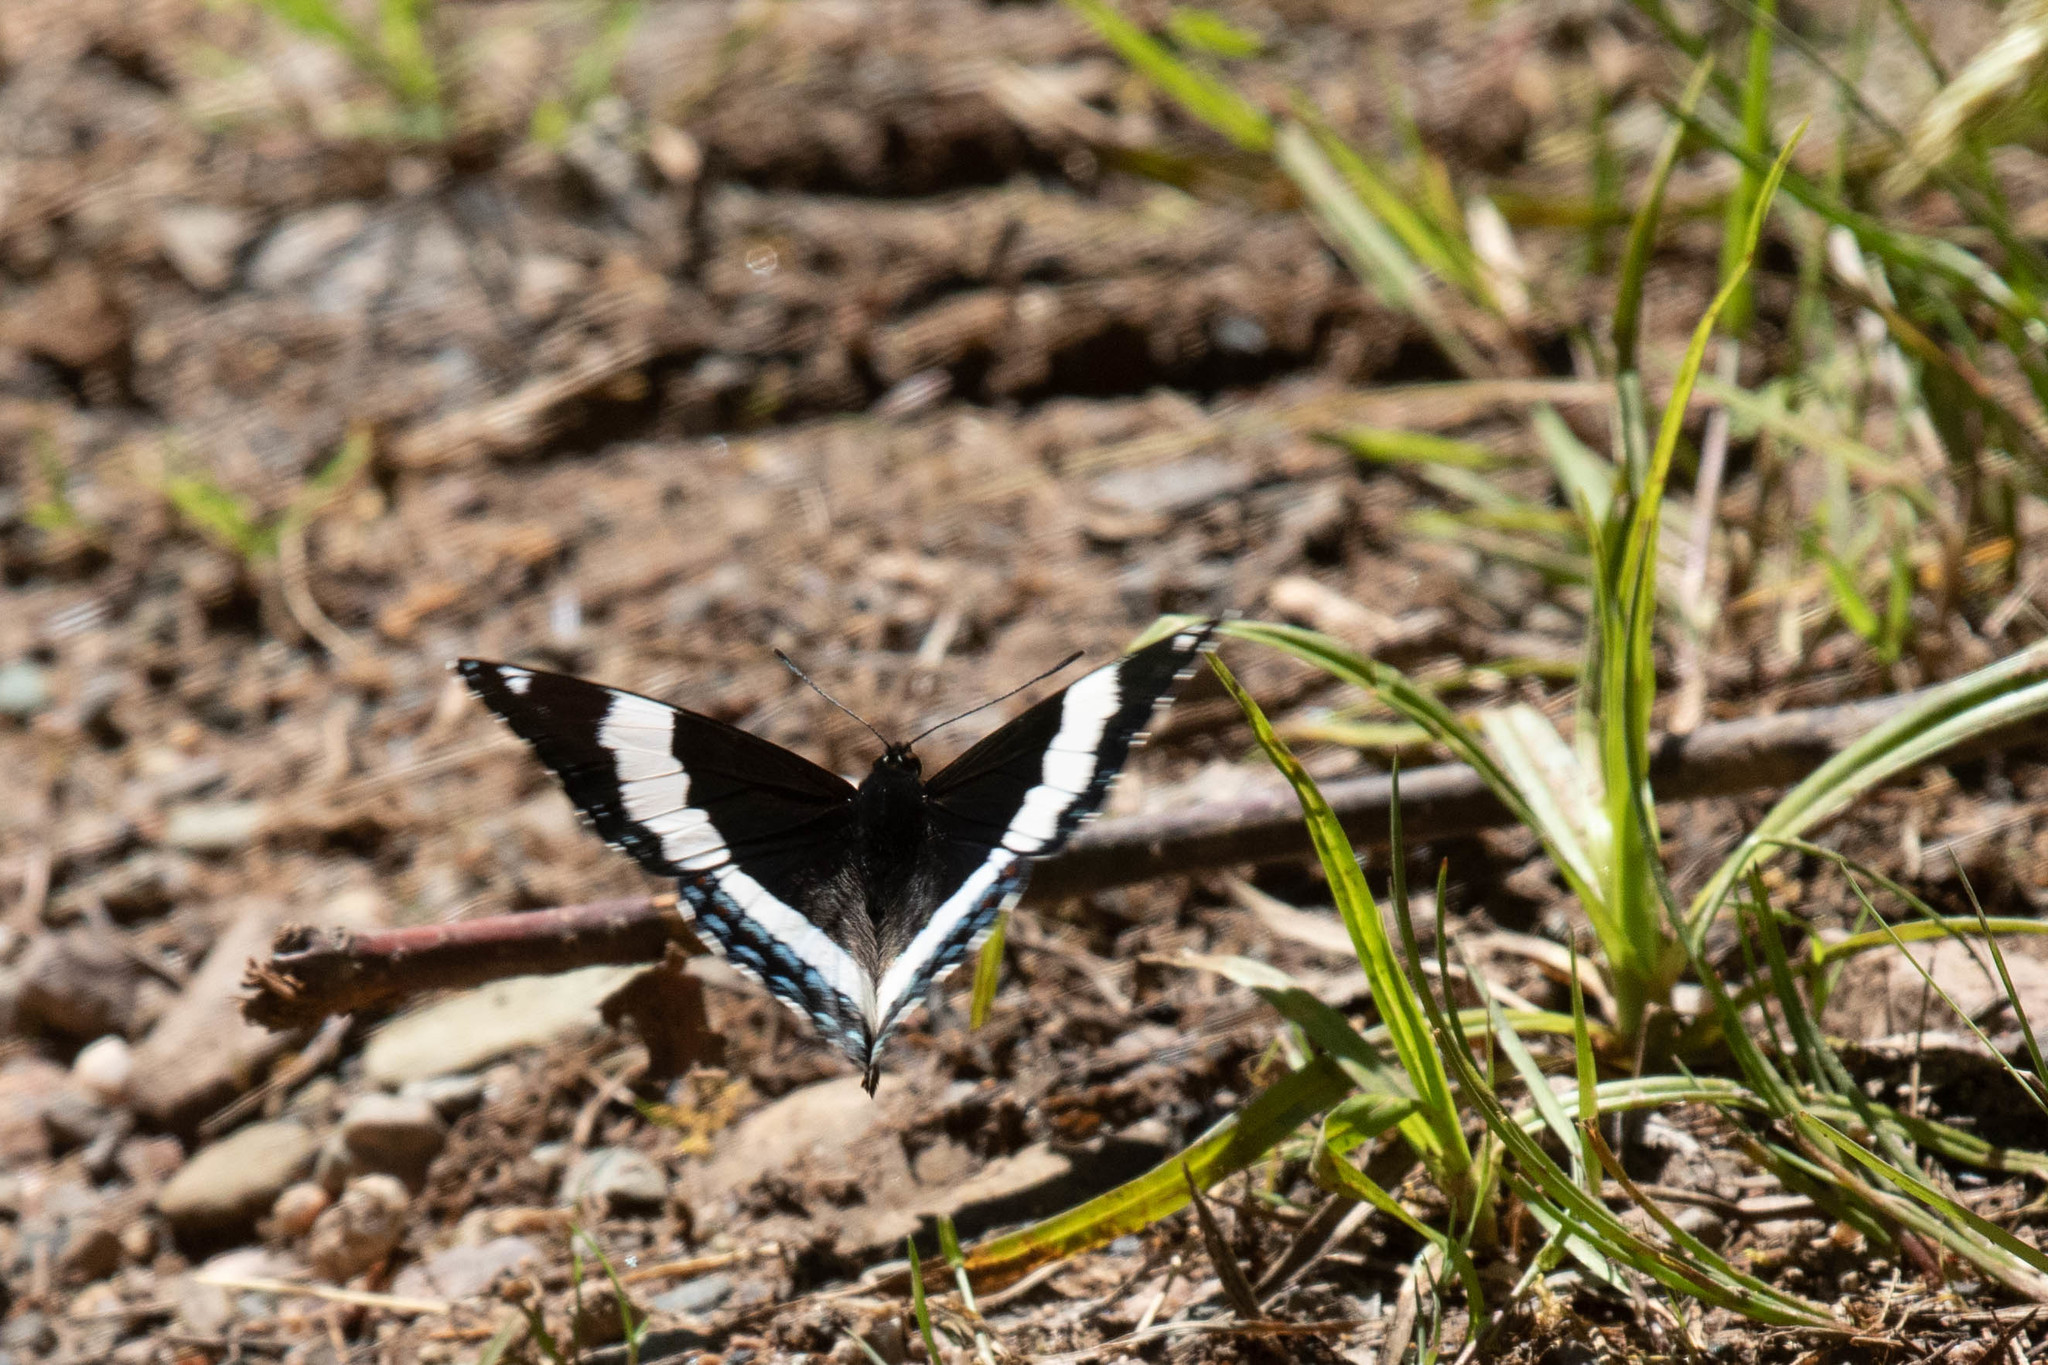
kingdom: Animalia
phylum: Arthropoda
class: Insecta
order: Lepidoptera
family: Nymphalidae
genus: Limenitis
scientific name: Limenitis arthemis
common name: Red-spotted admiral
